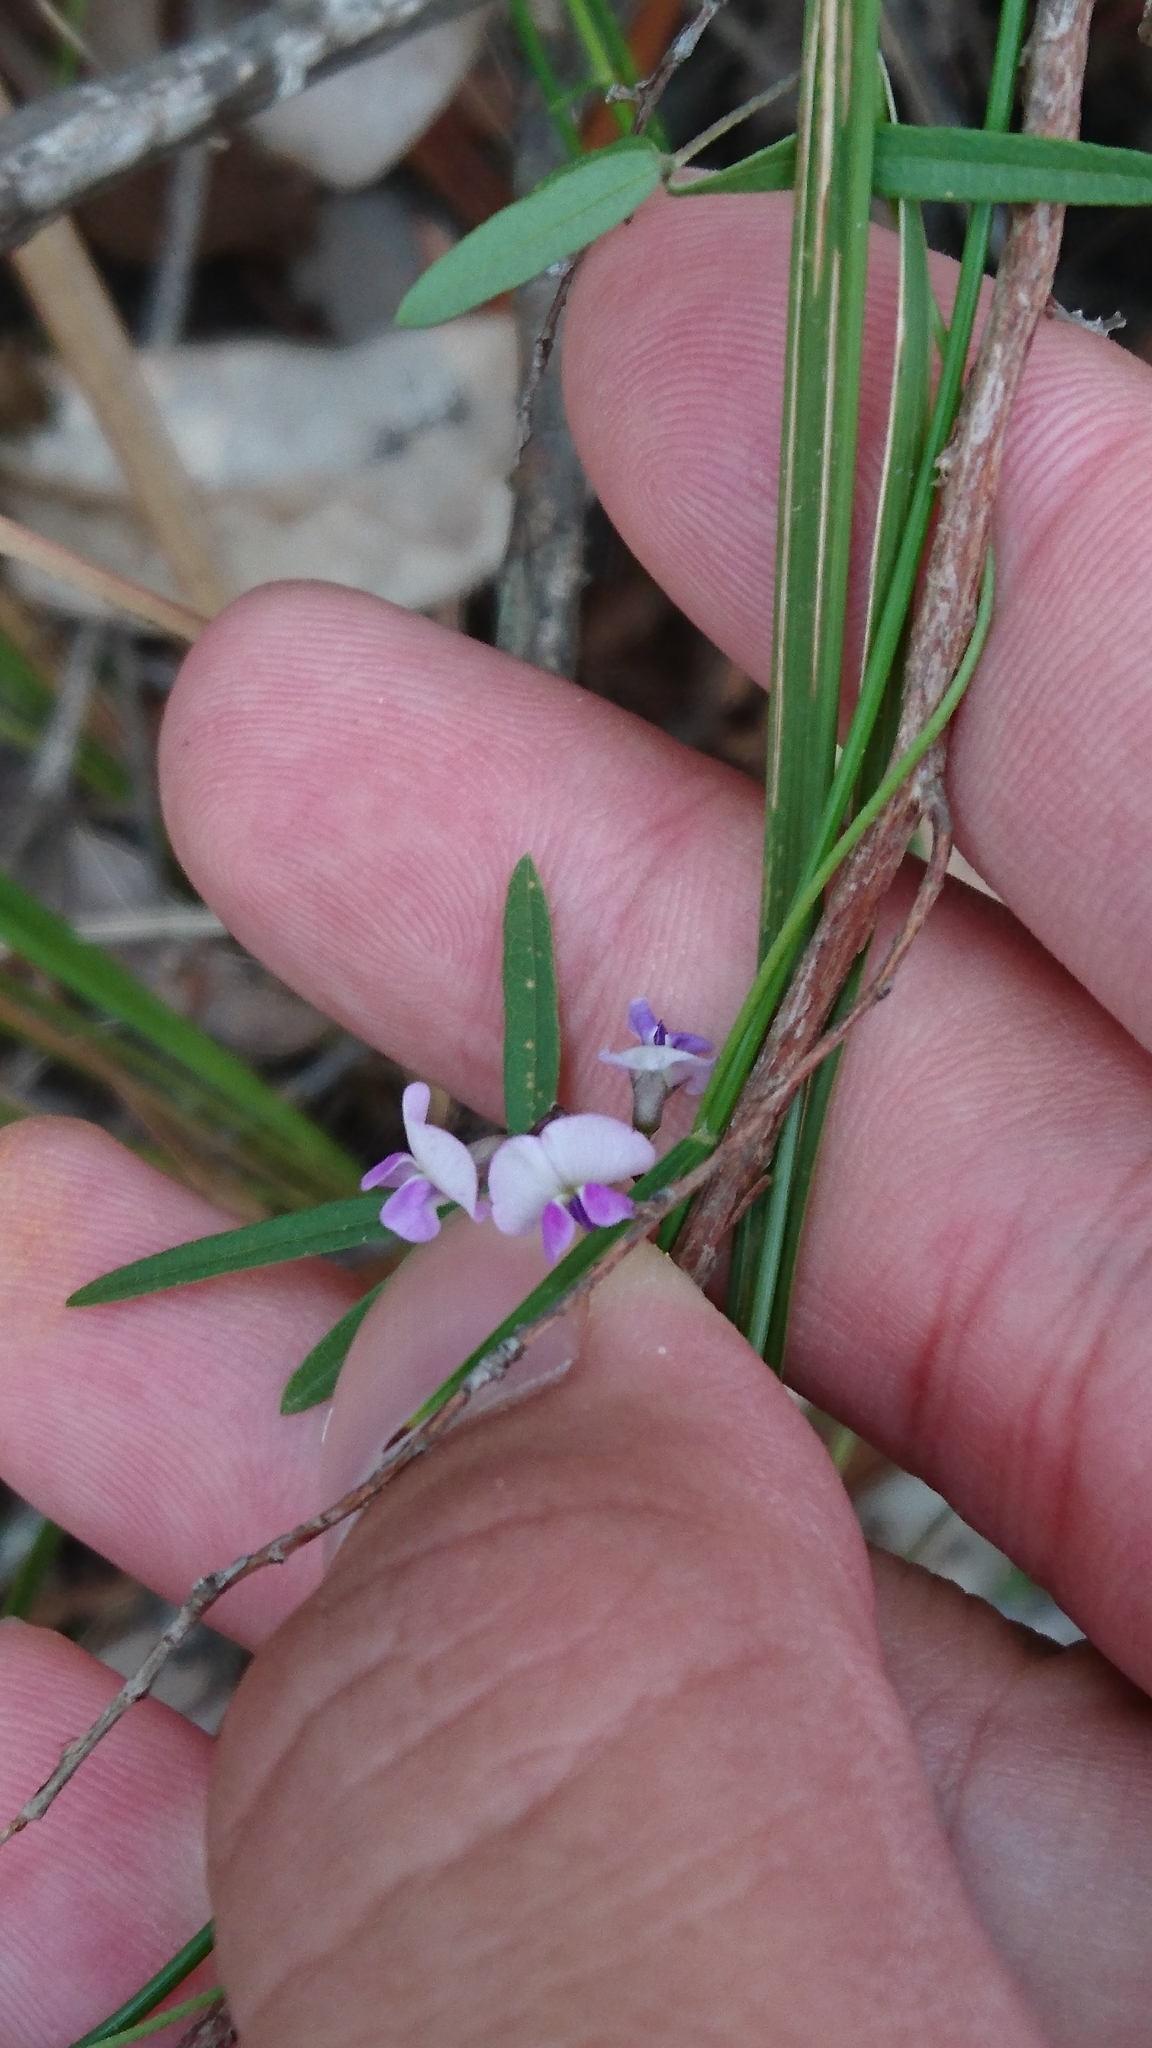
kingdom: Plantae
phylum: Tracheophyta
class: Magnoliopsida
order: Fabales
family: Fabaceae
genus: Glycine
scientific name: Glycine clandestina
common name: Twining glycine
